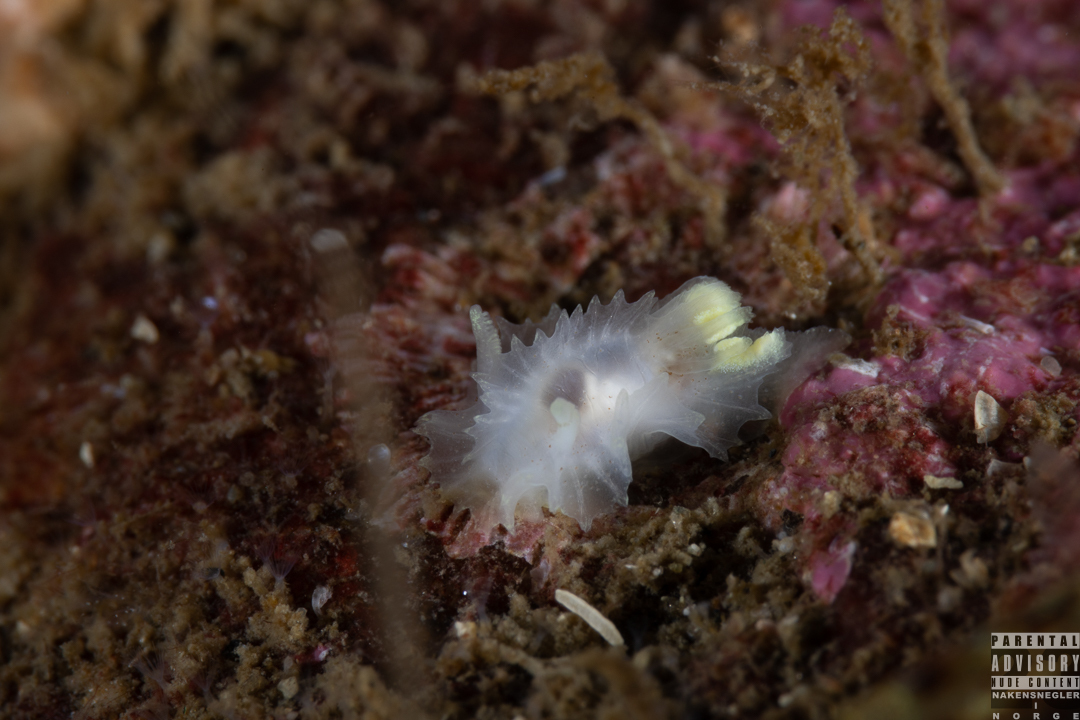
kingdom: Animalia
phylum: Mollusca
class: Gastropoda
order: Nudibranchia
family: Goniodorididae
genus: Lophodoris
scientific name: Lophodoris danielsseni
